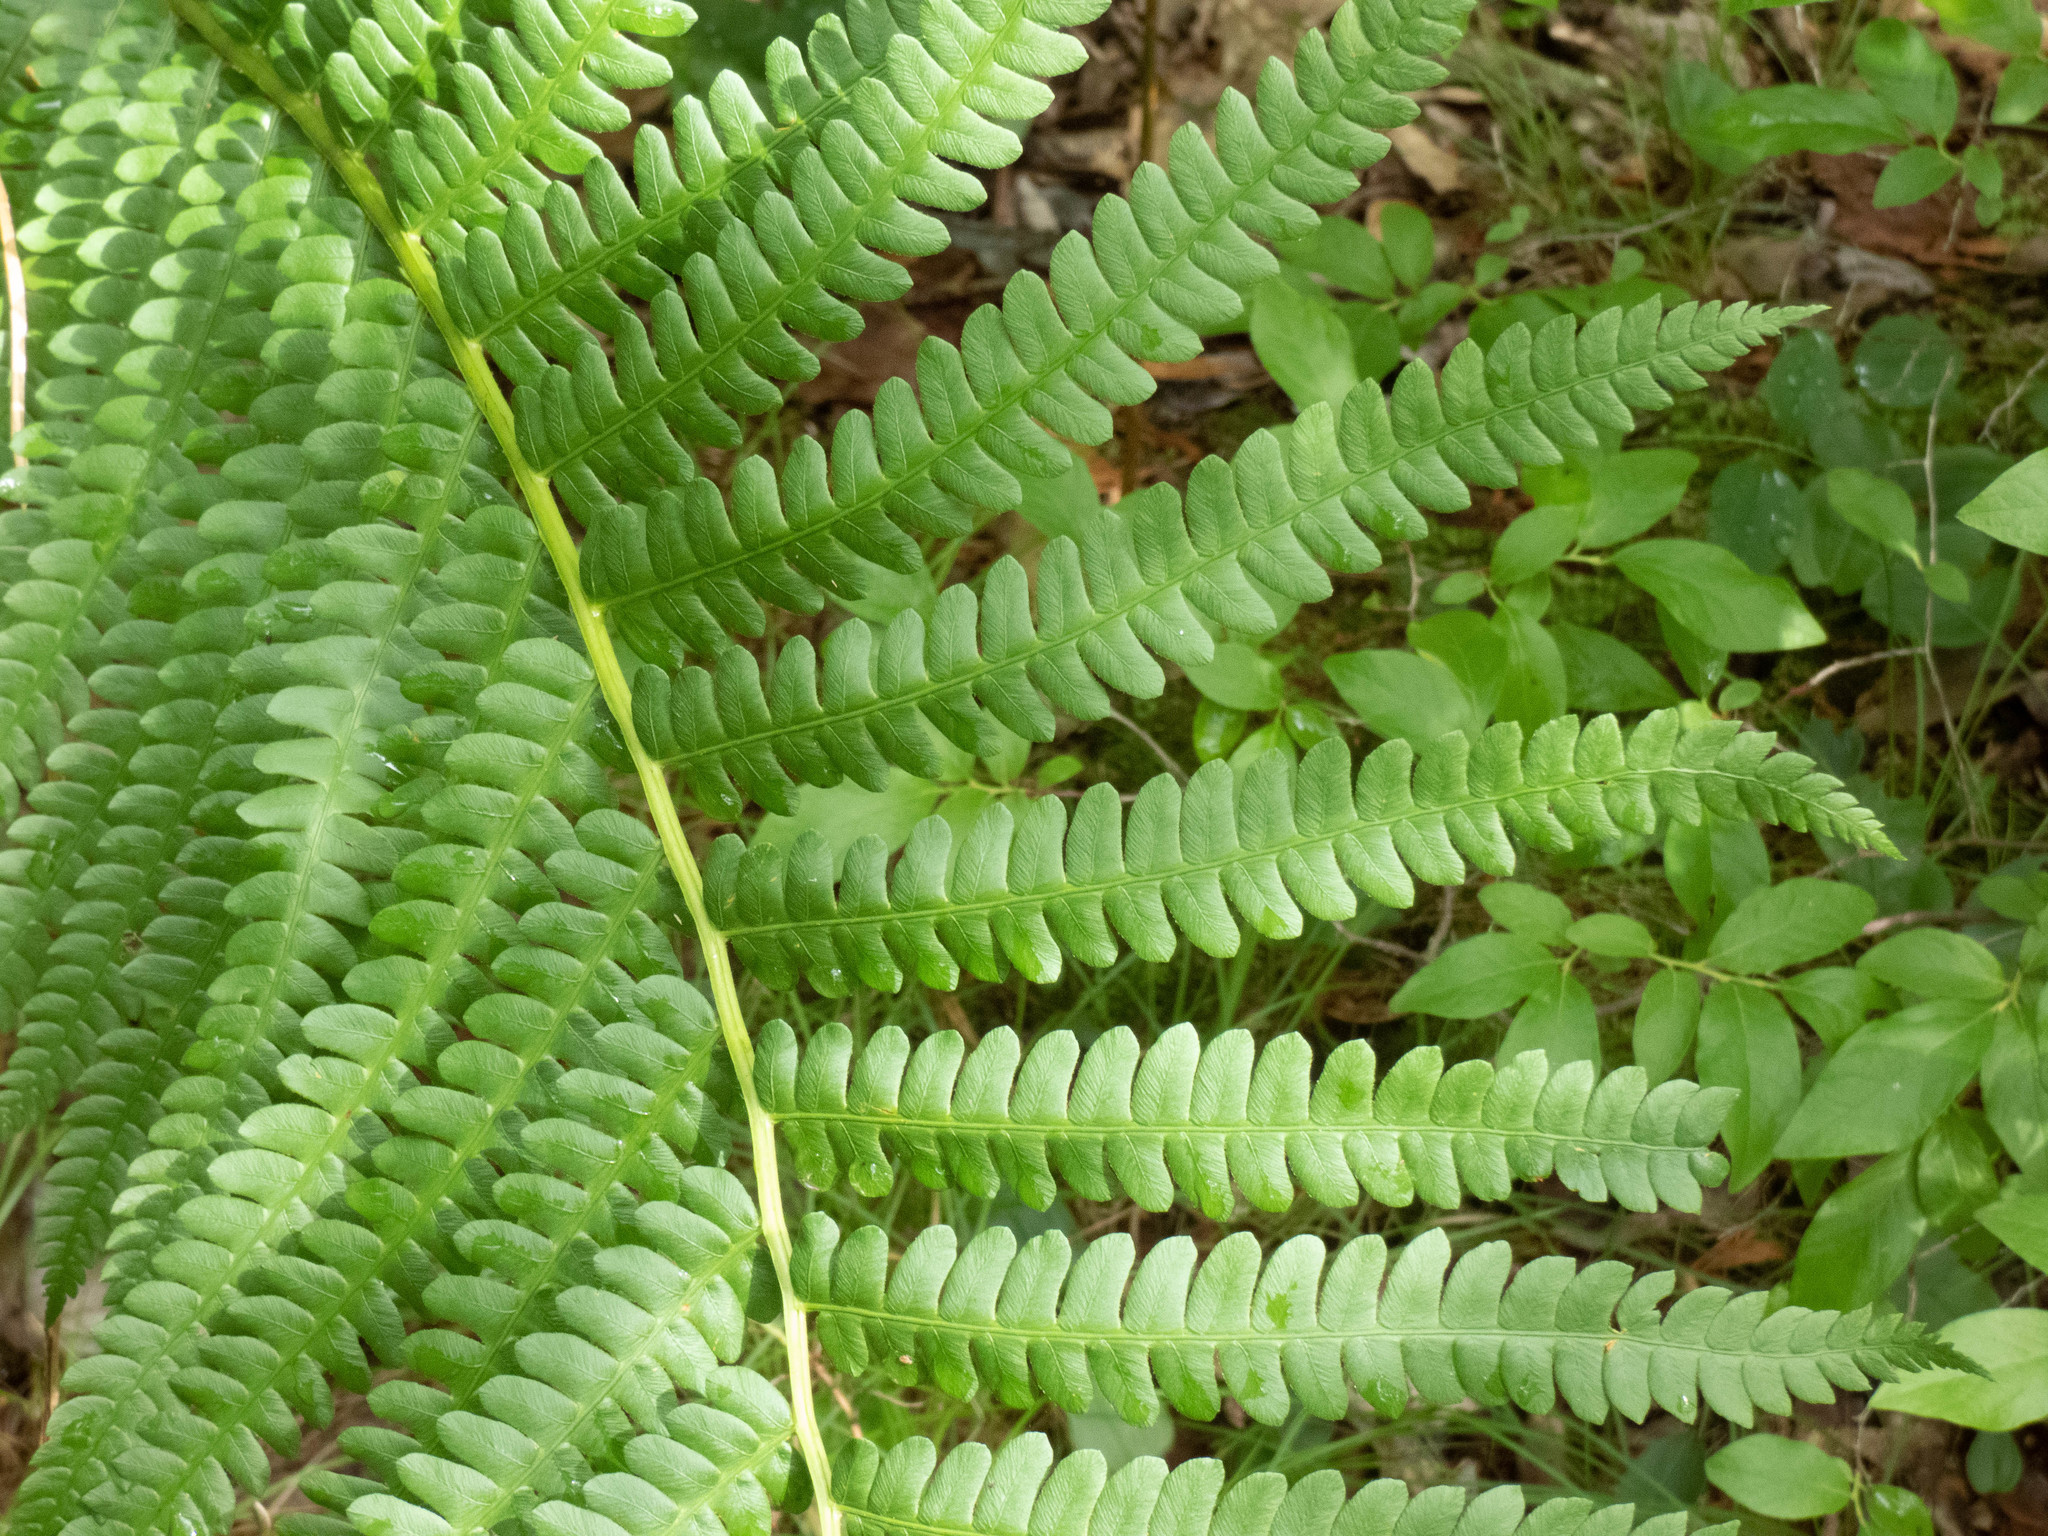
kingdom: Plantae
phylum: Tracheophyta
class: Polypodiopsida
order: Osmundales
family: Osmundaceae
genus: Osmundastrum
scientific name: Osmundastrum cinnamomeum
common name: Cinnamon fern
